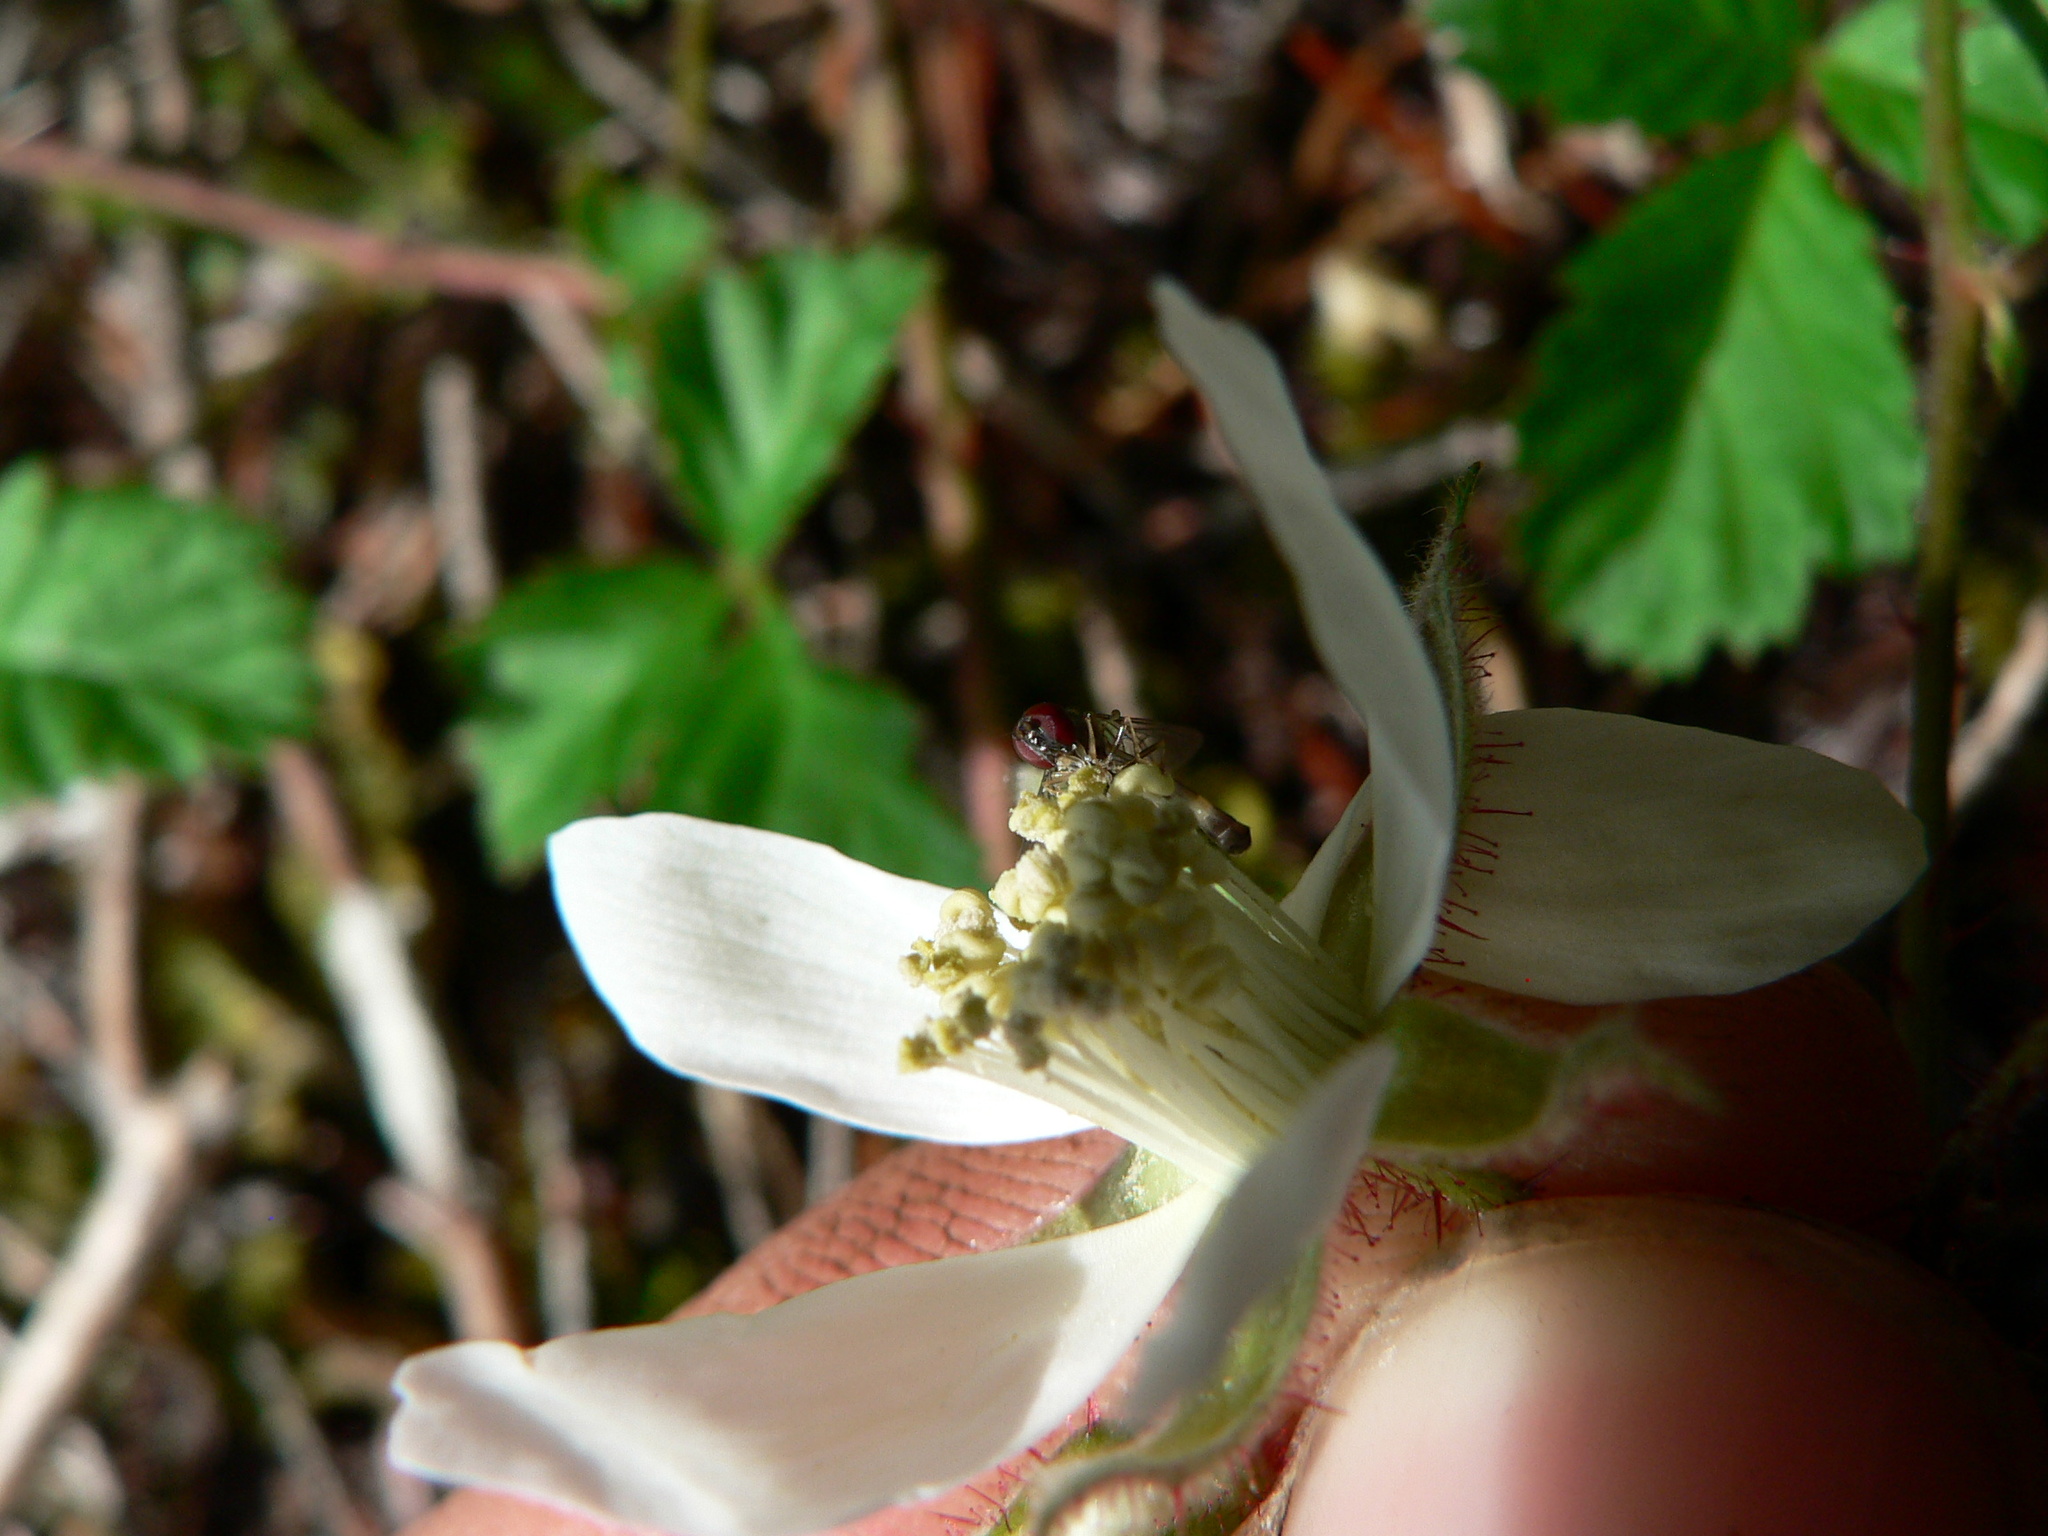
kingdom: Animalia
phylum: Arthropoda
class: Insecta
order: Diptera
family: Syrphidae
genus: Baccha
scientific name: Baccha cognata
